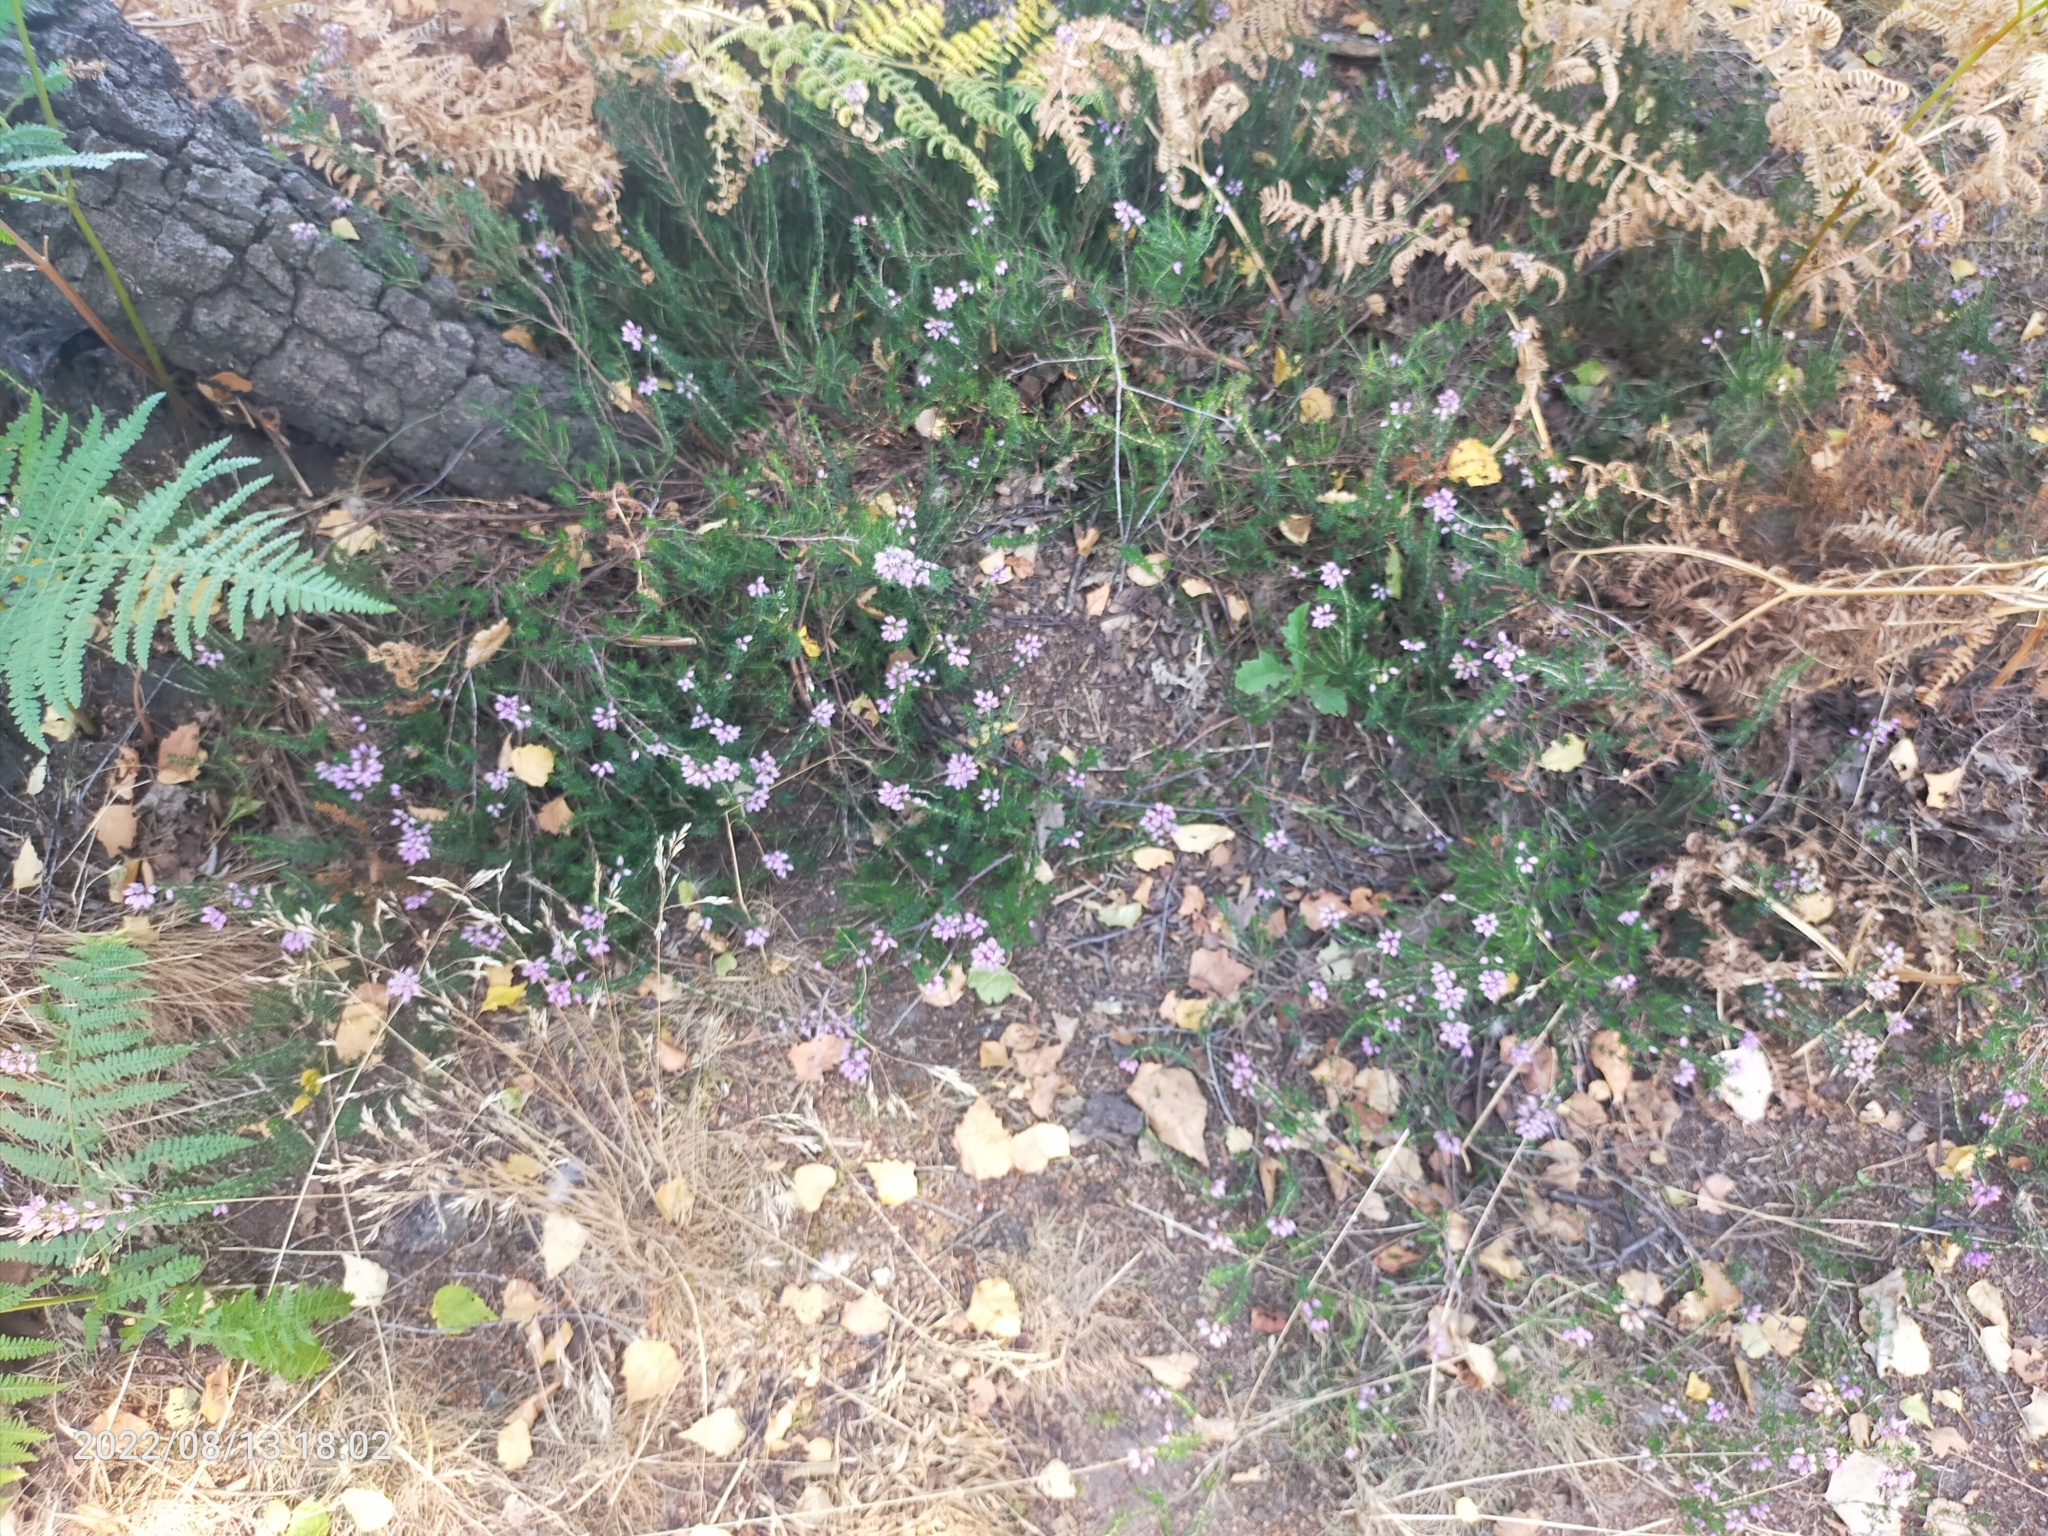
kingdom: Plantae
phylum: Tracheophyta
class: Magnoliopsida
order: Ericales
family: Ericaceae
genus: Erica
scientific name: Erica
